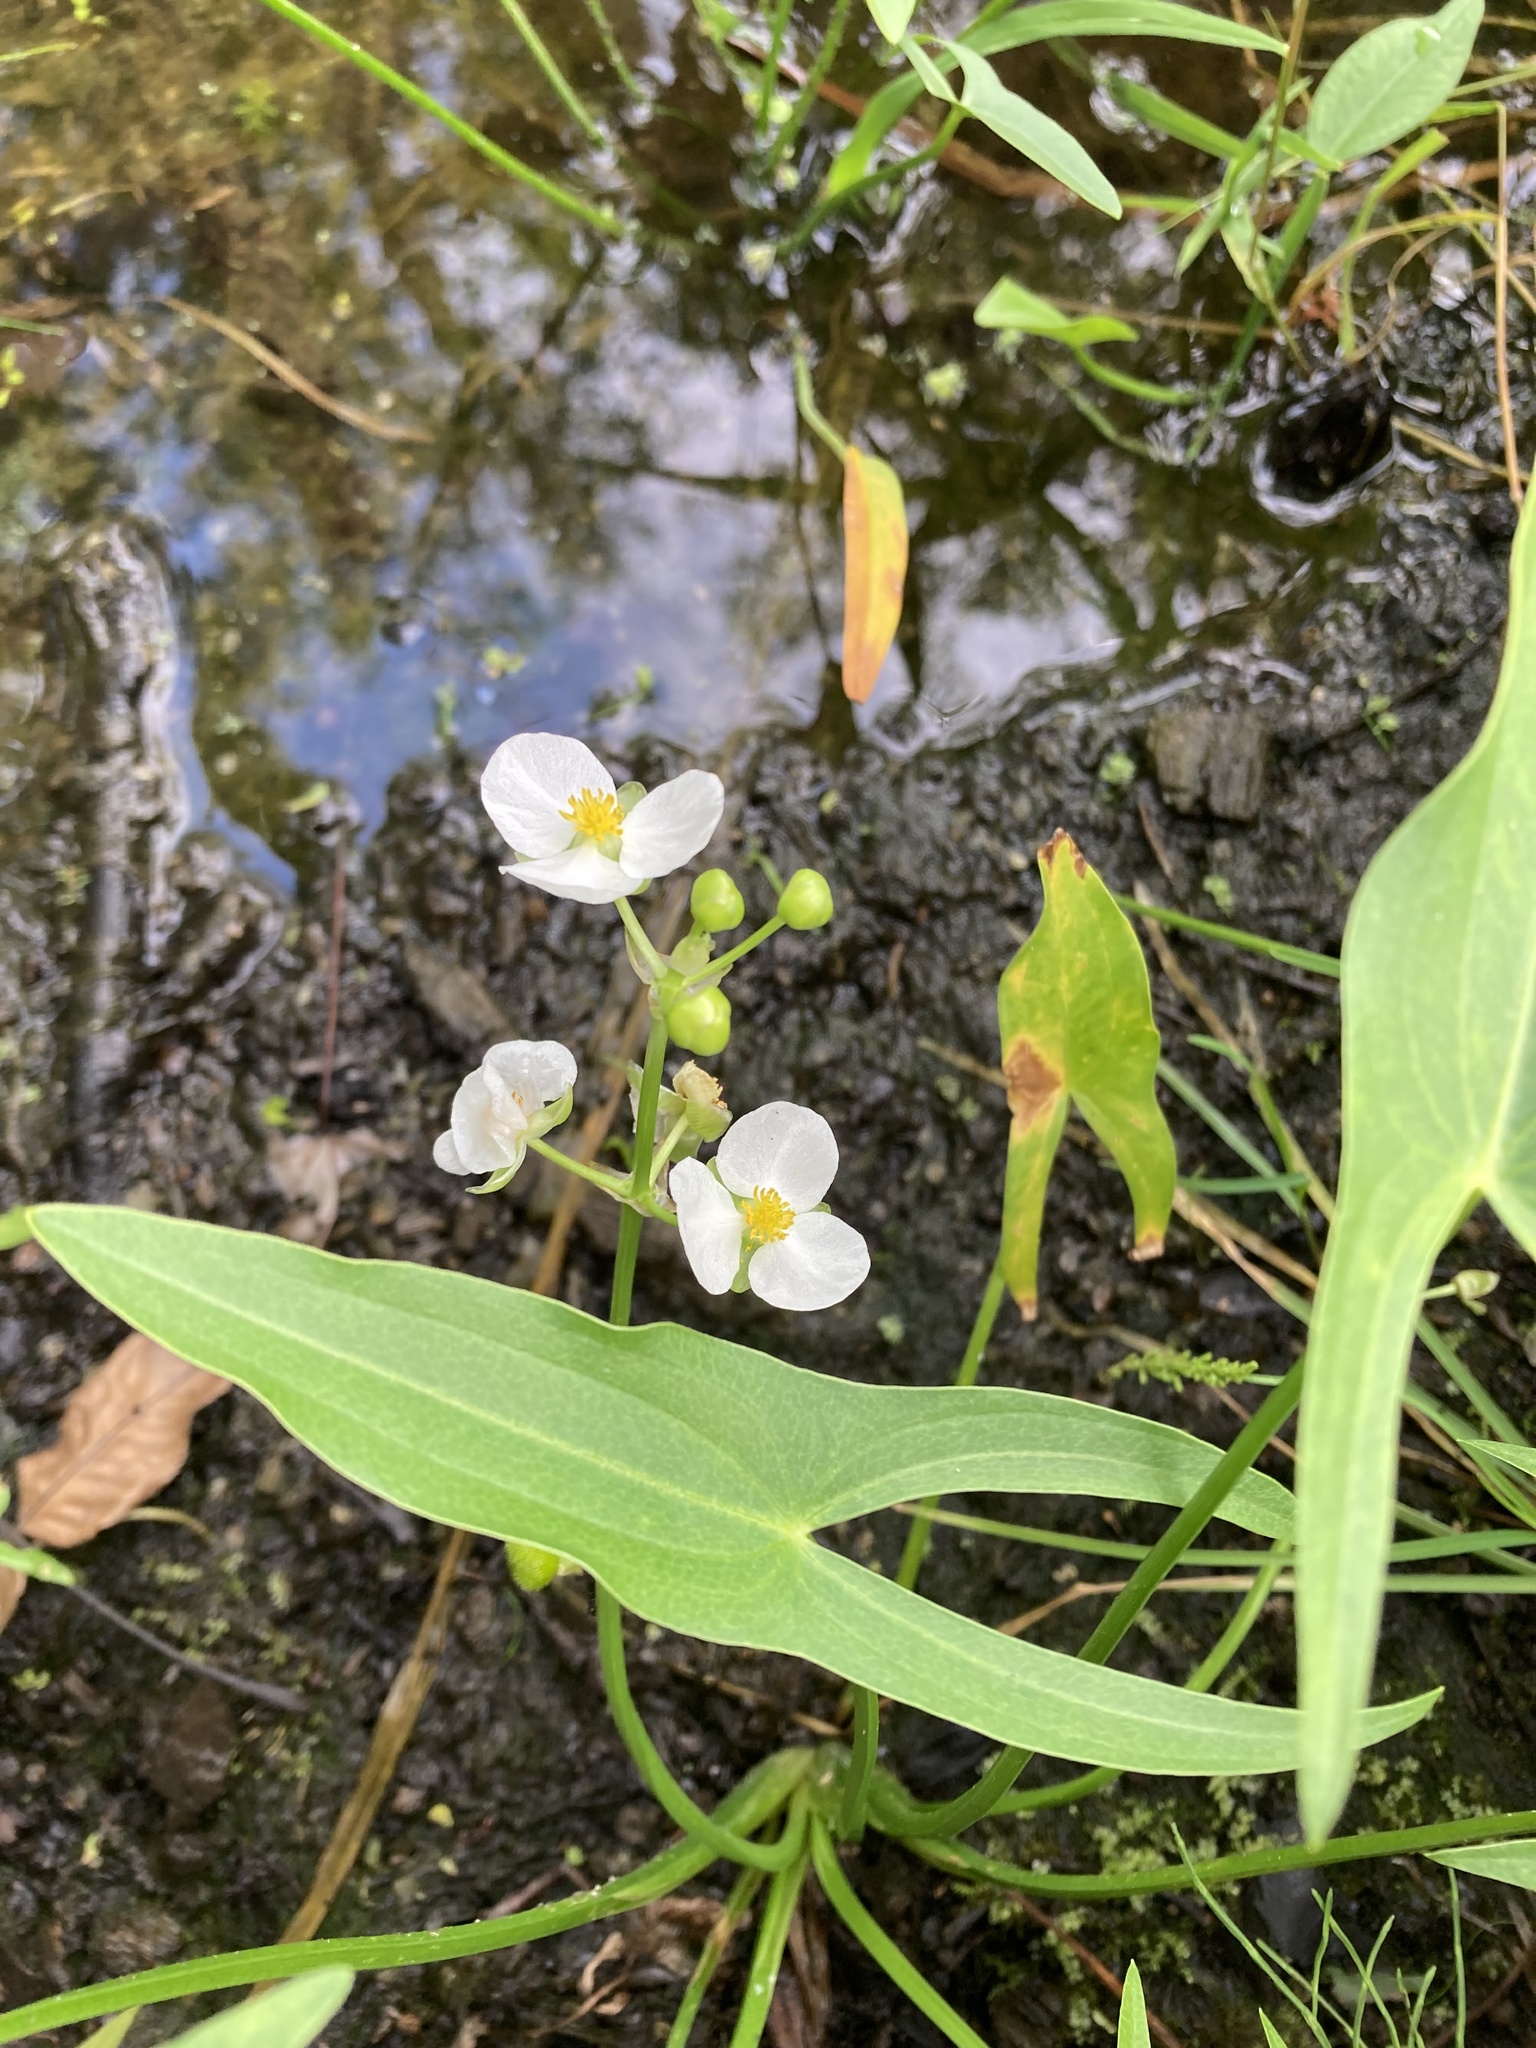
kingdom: Plantae
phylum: Tracheophyta
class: Liliopsida
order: Alismatales
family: Alismataceae
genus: Sagittaria
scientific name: Sagittaria latifolia
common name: Duck-potato
